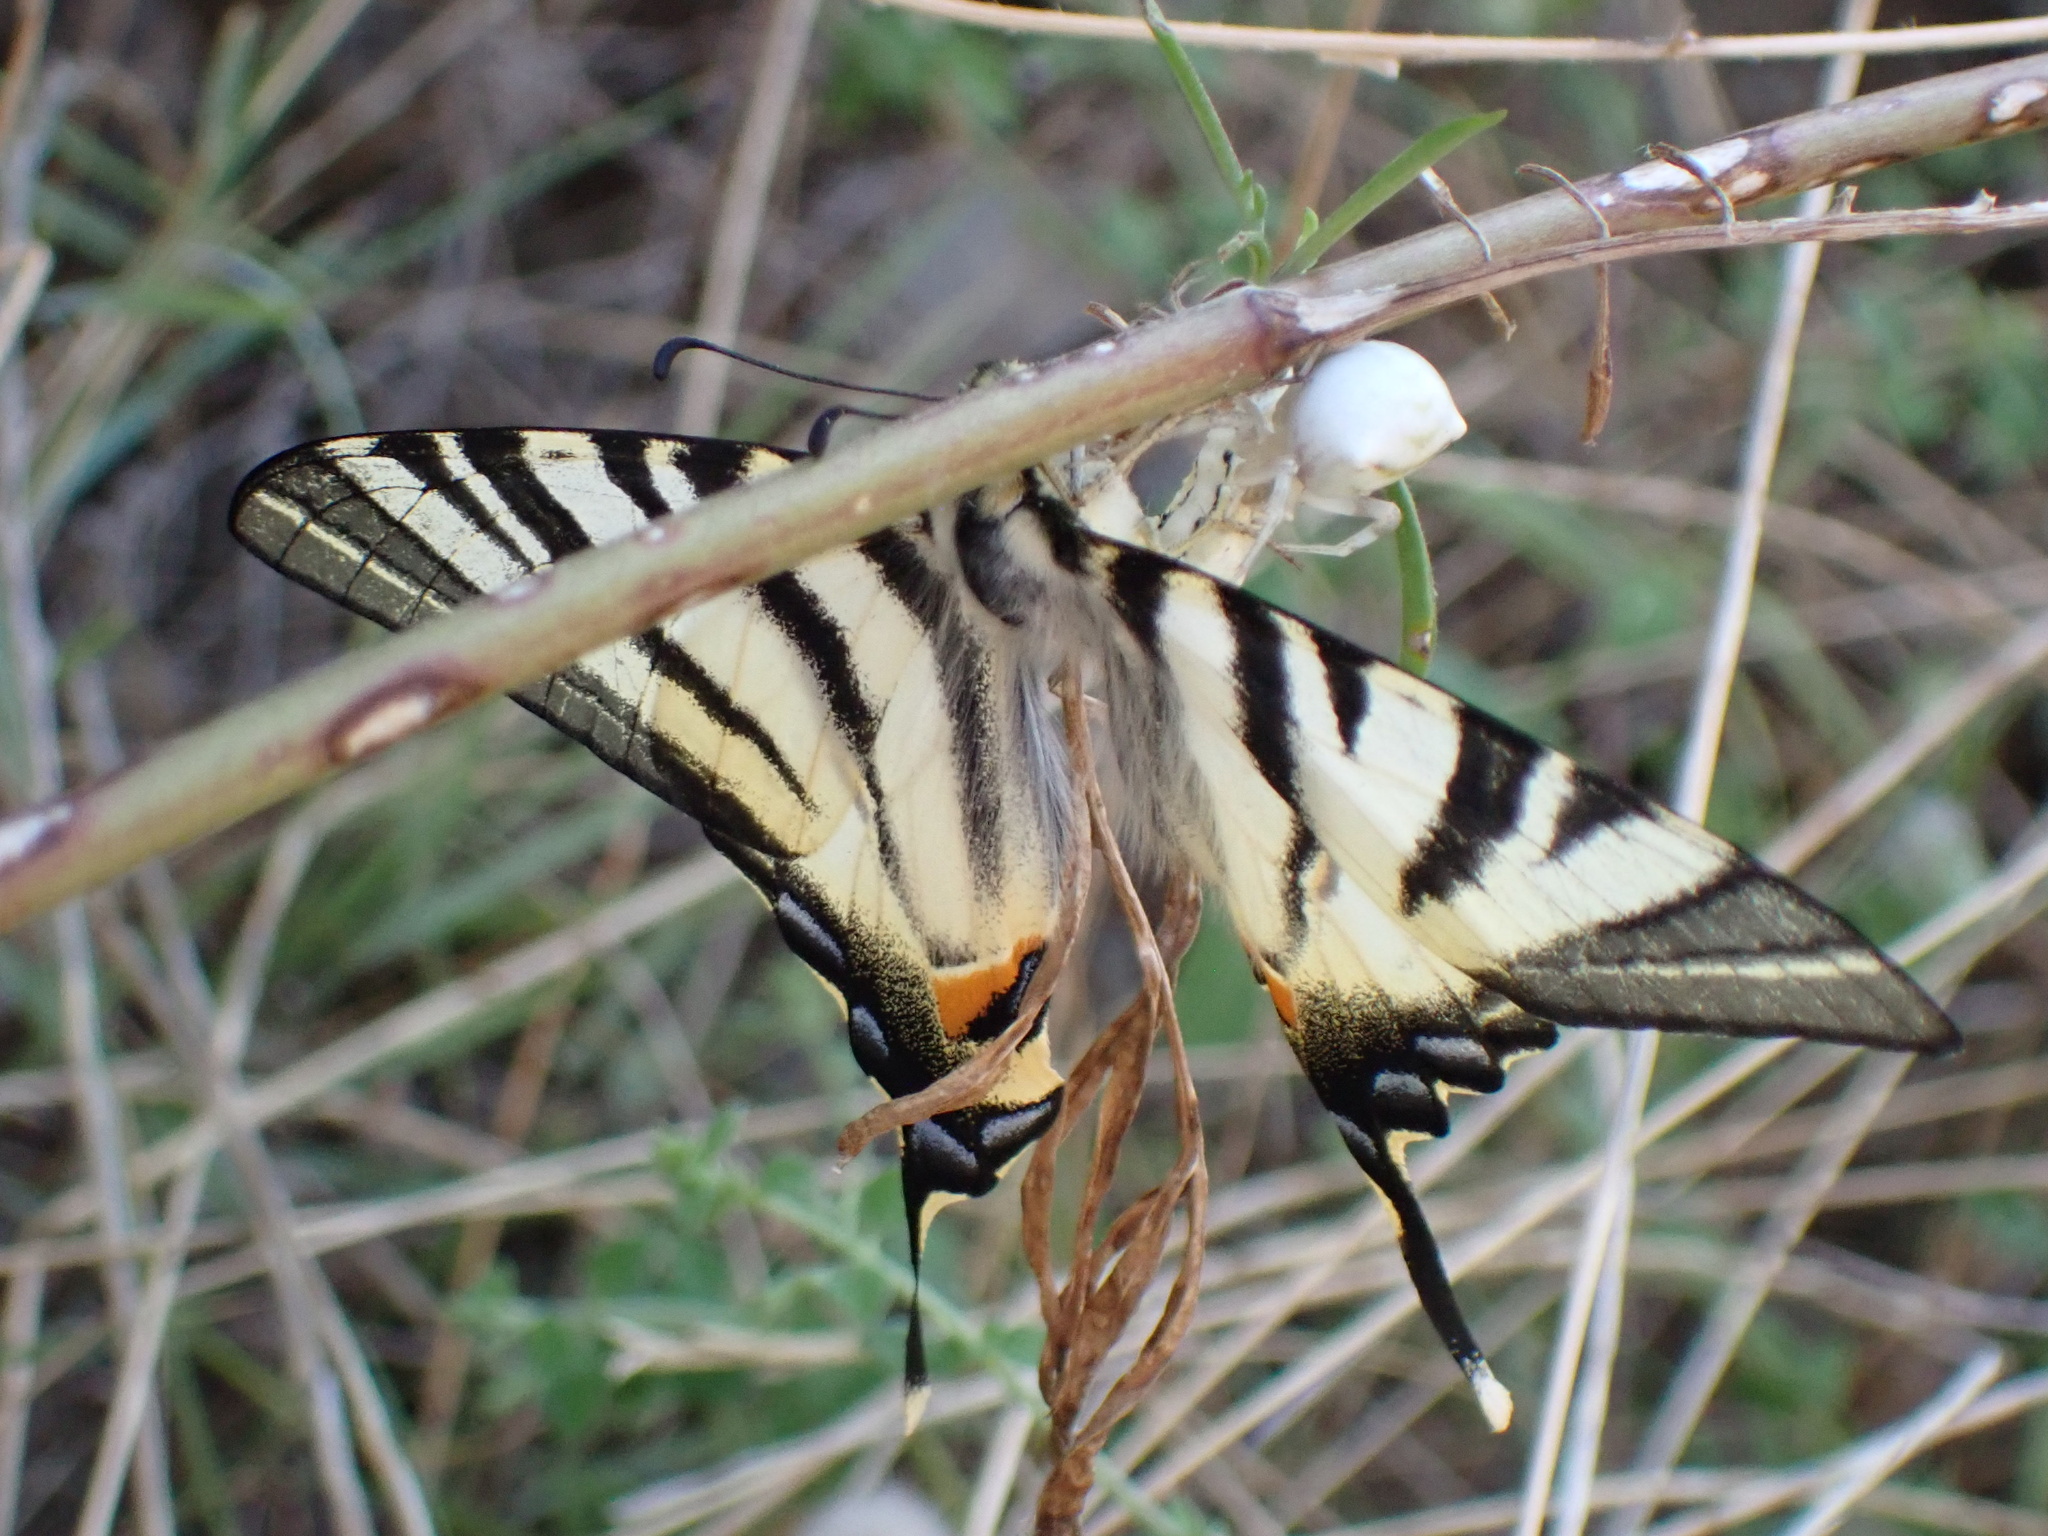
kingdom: Animalia
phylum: Arthropoda
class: Arachnida
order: Araneae
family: Thomisidae
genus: Thomisus
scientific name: Thomisus onustus
